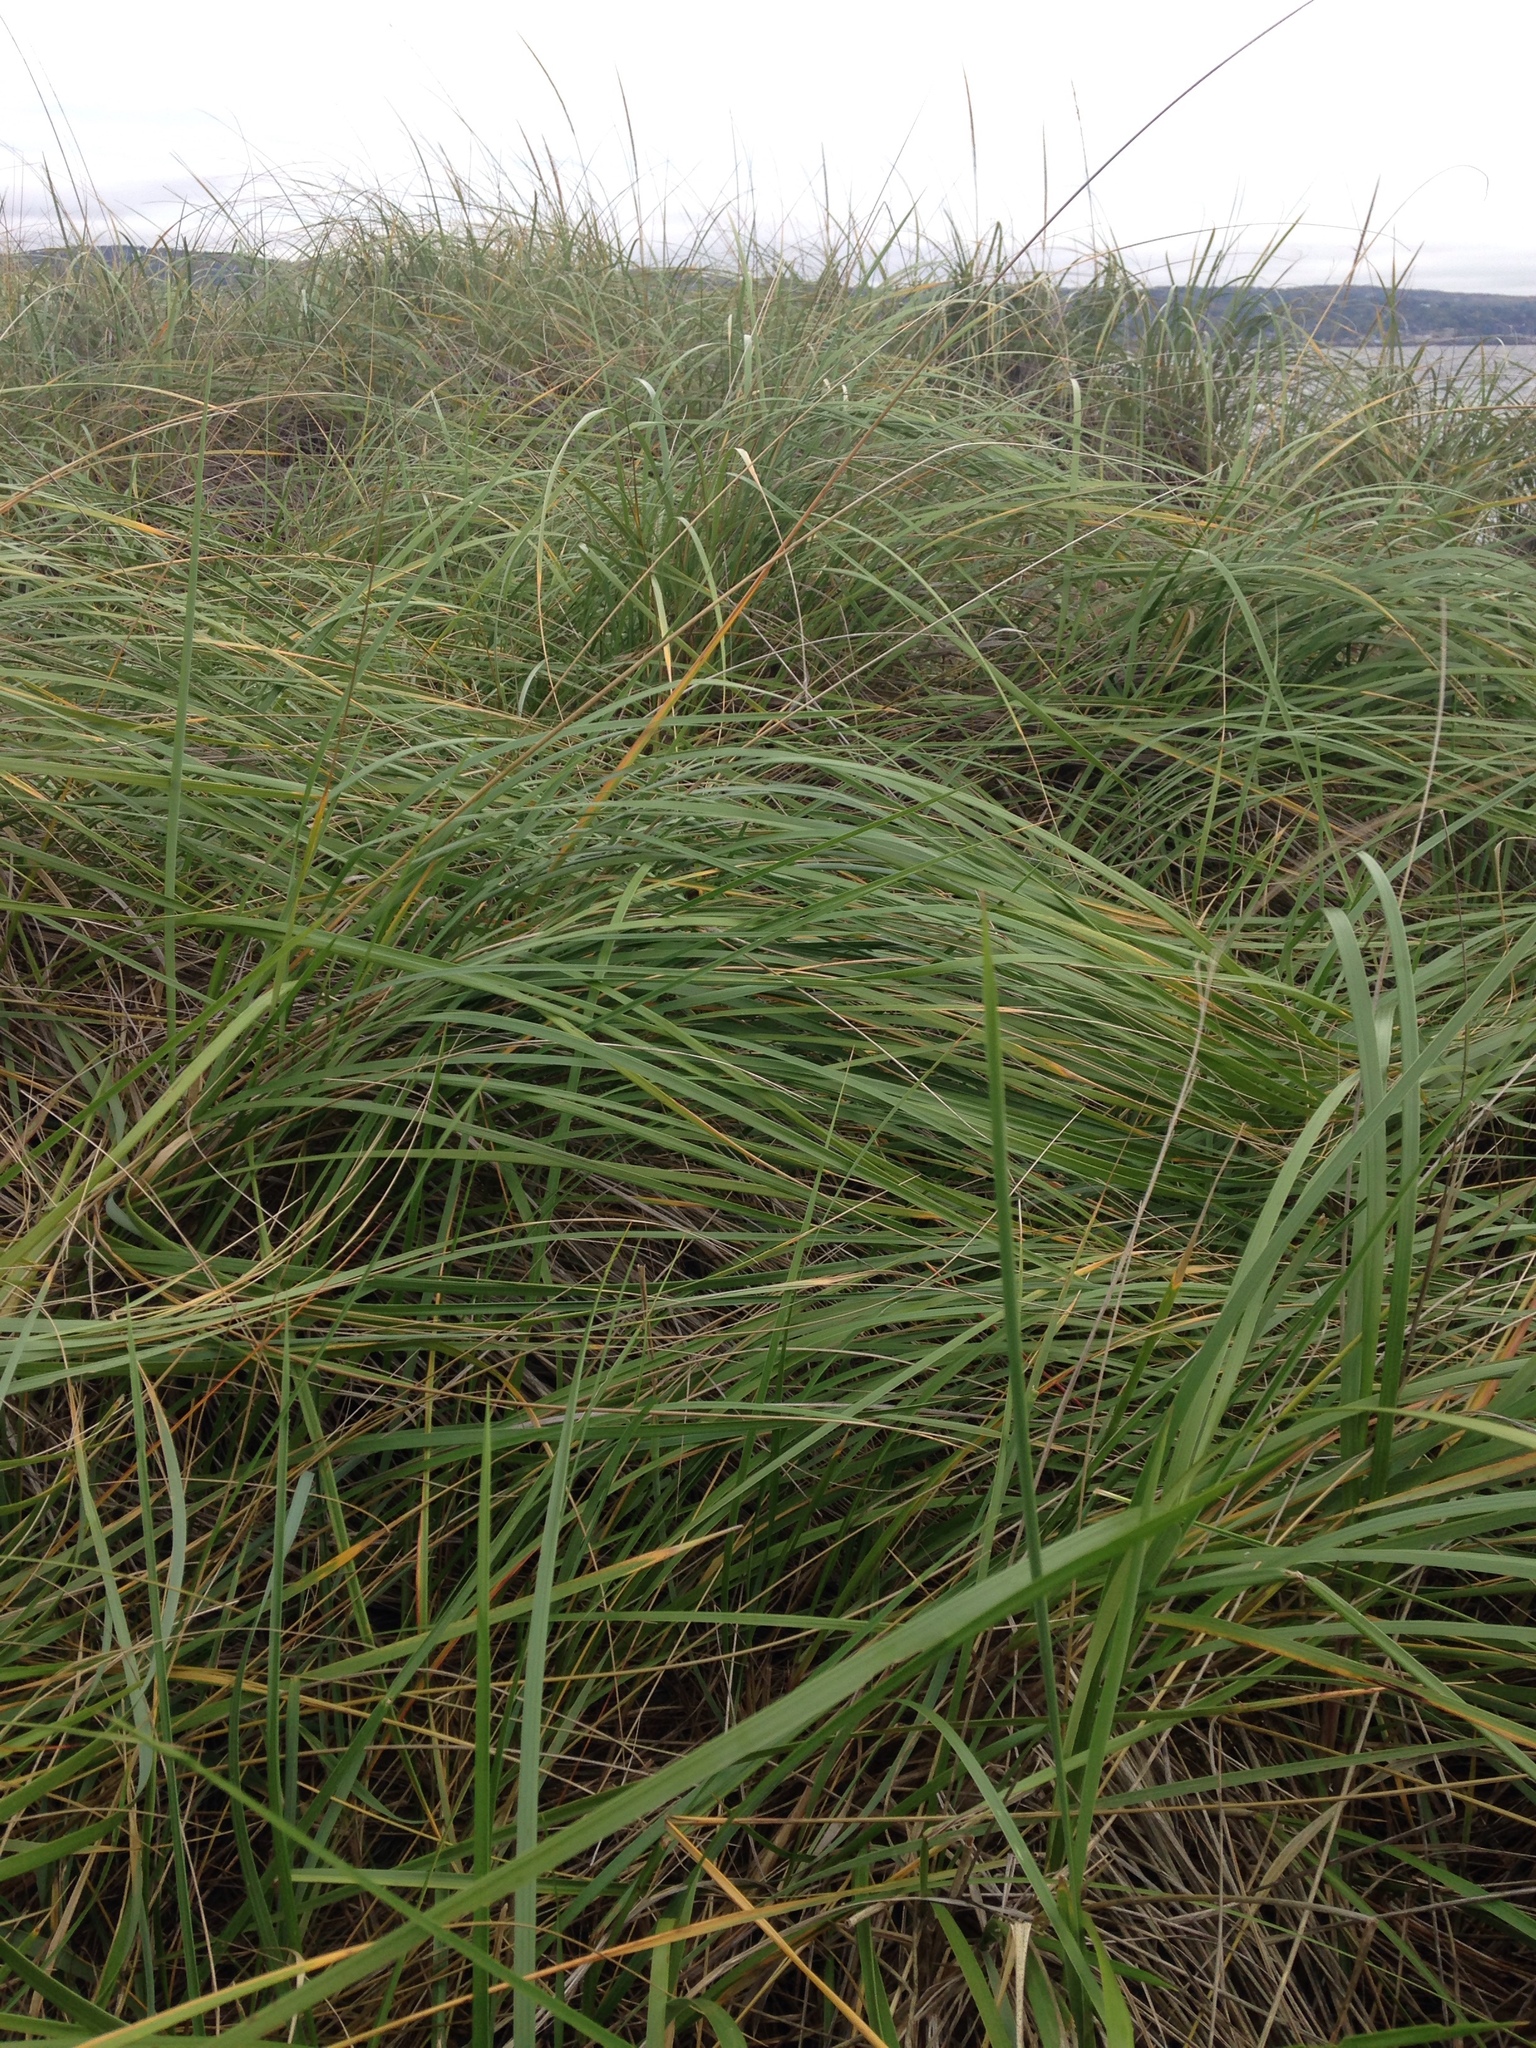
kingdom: Plantae
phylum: Tracheophyta
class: Liliopsida
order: Poales
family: Poaceae
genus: Calamagrostis
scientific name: Calamagrostis breviligulata
